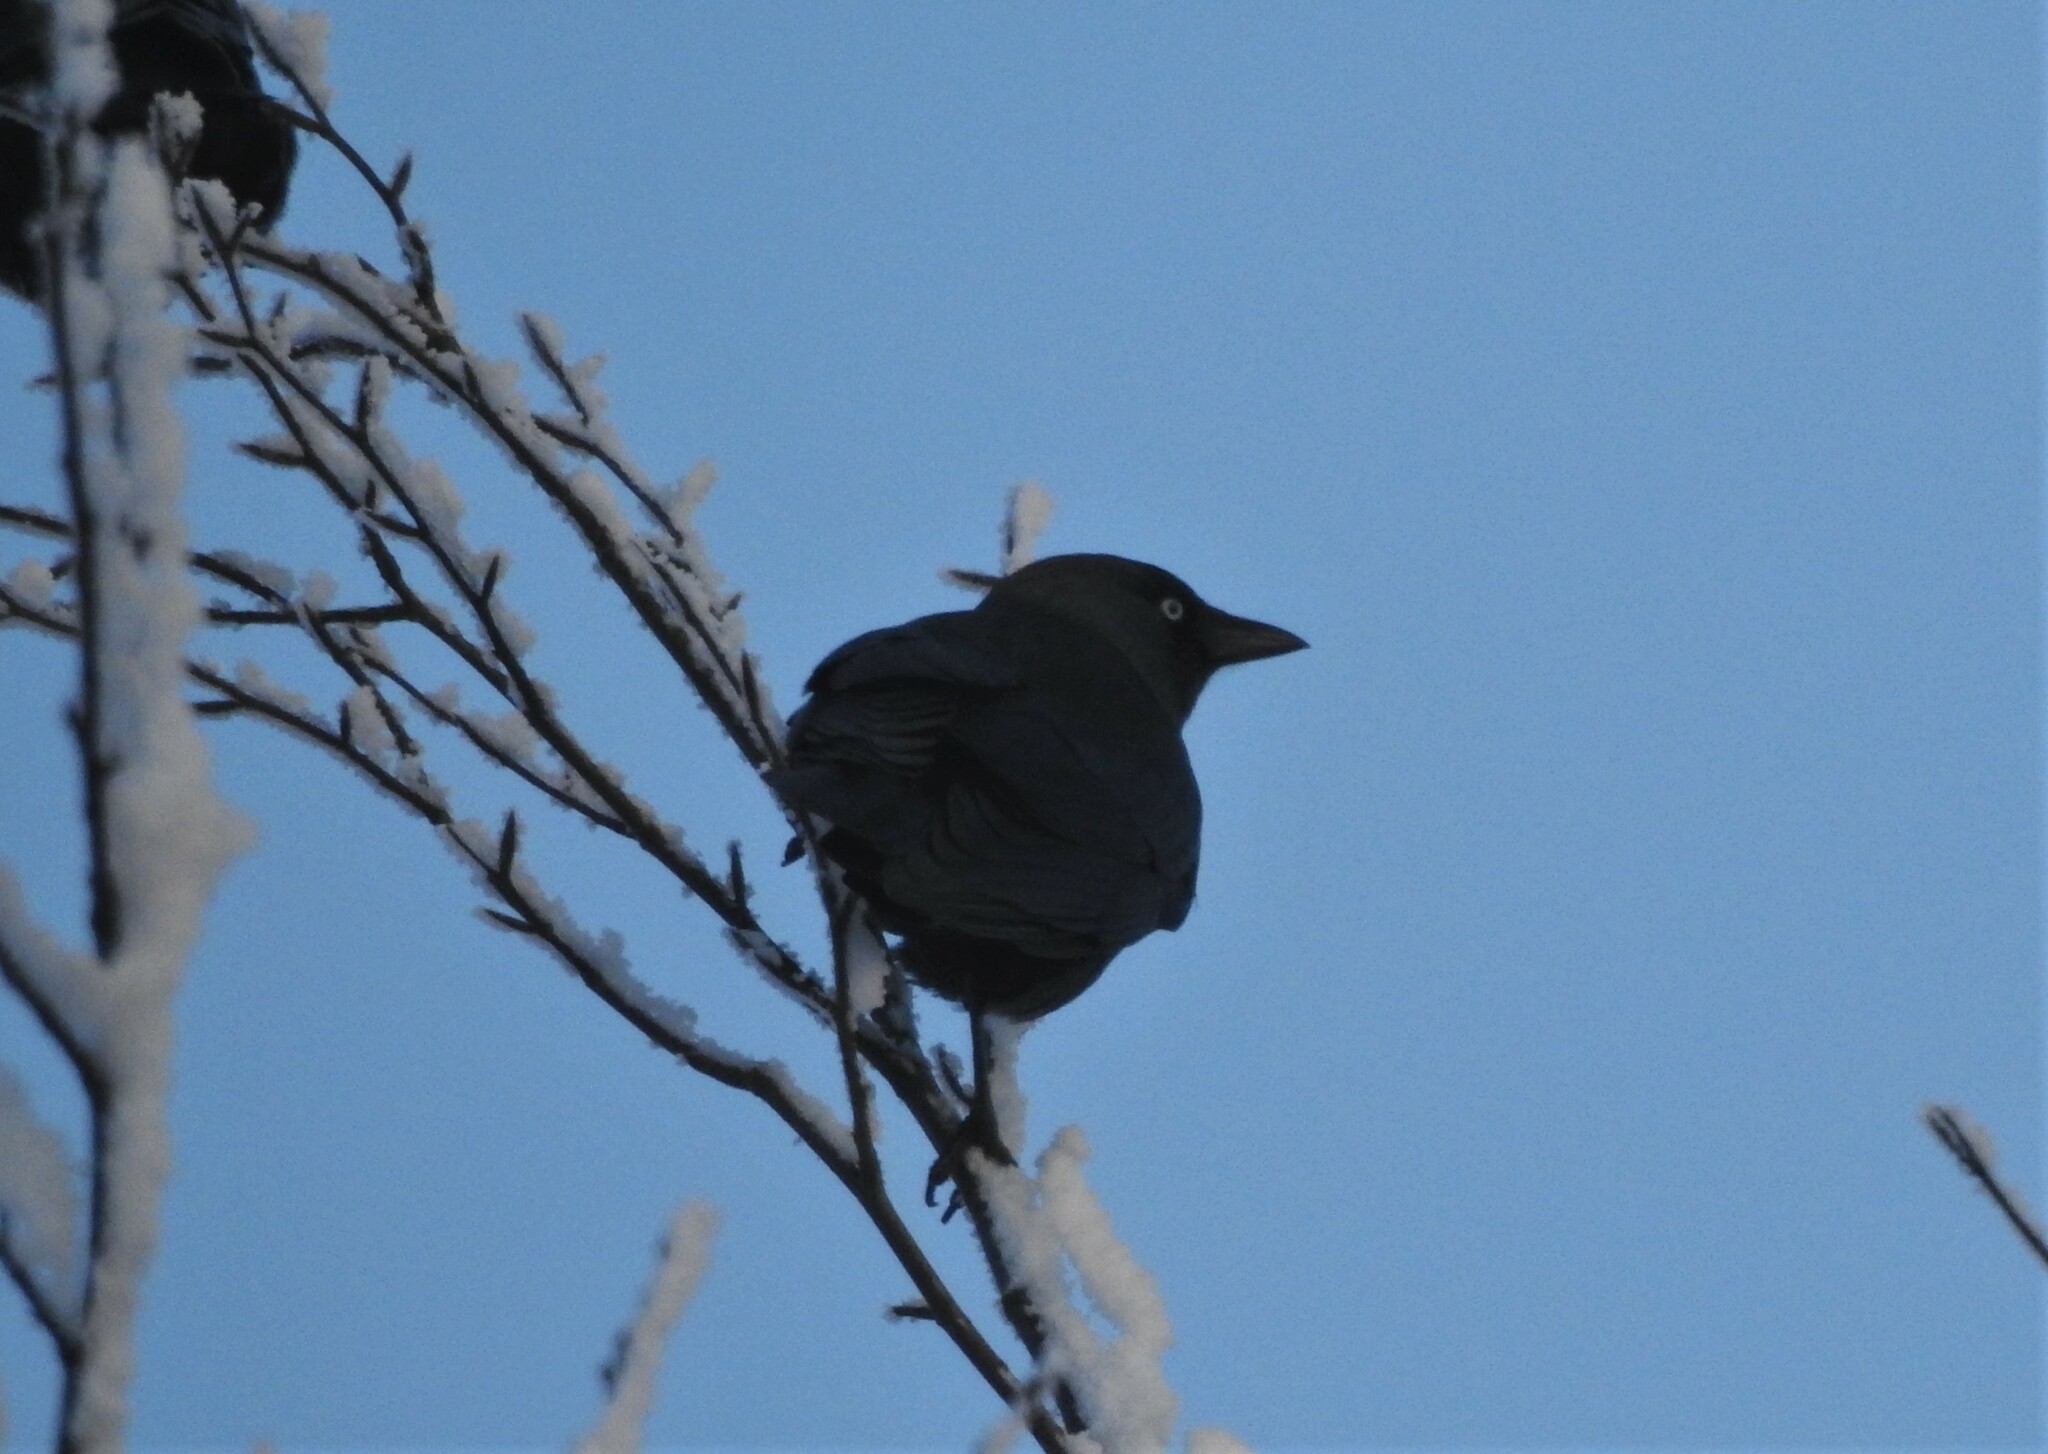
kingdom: Animalia
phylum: Chordata
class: Aves
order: Passeriformes
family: Corvidae
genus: Coloeus
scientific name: Coloeus monedula
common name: Western jackdaw
